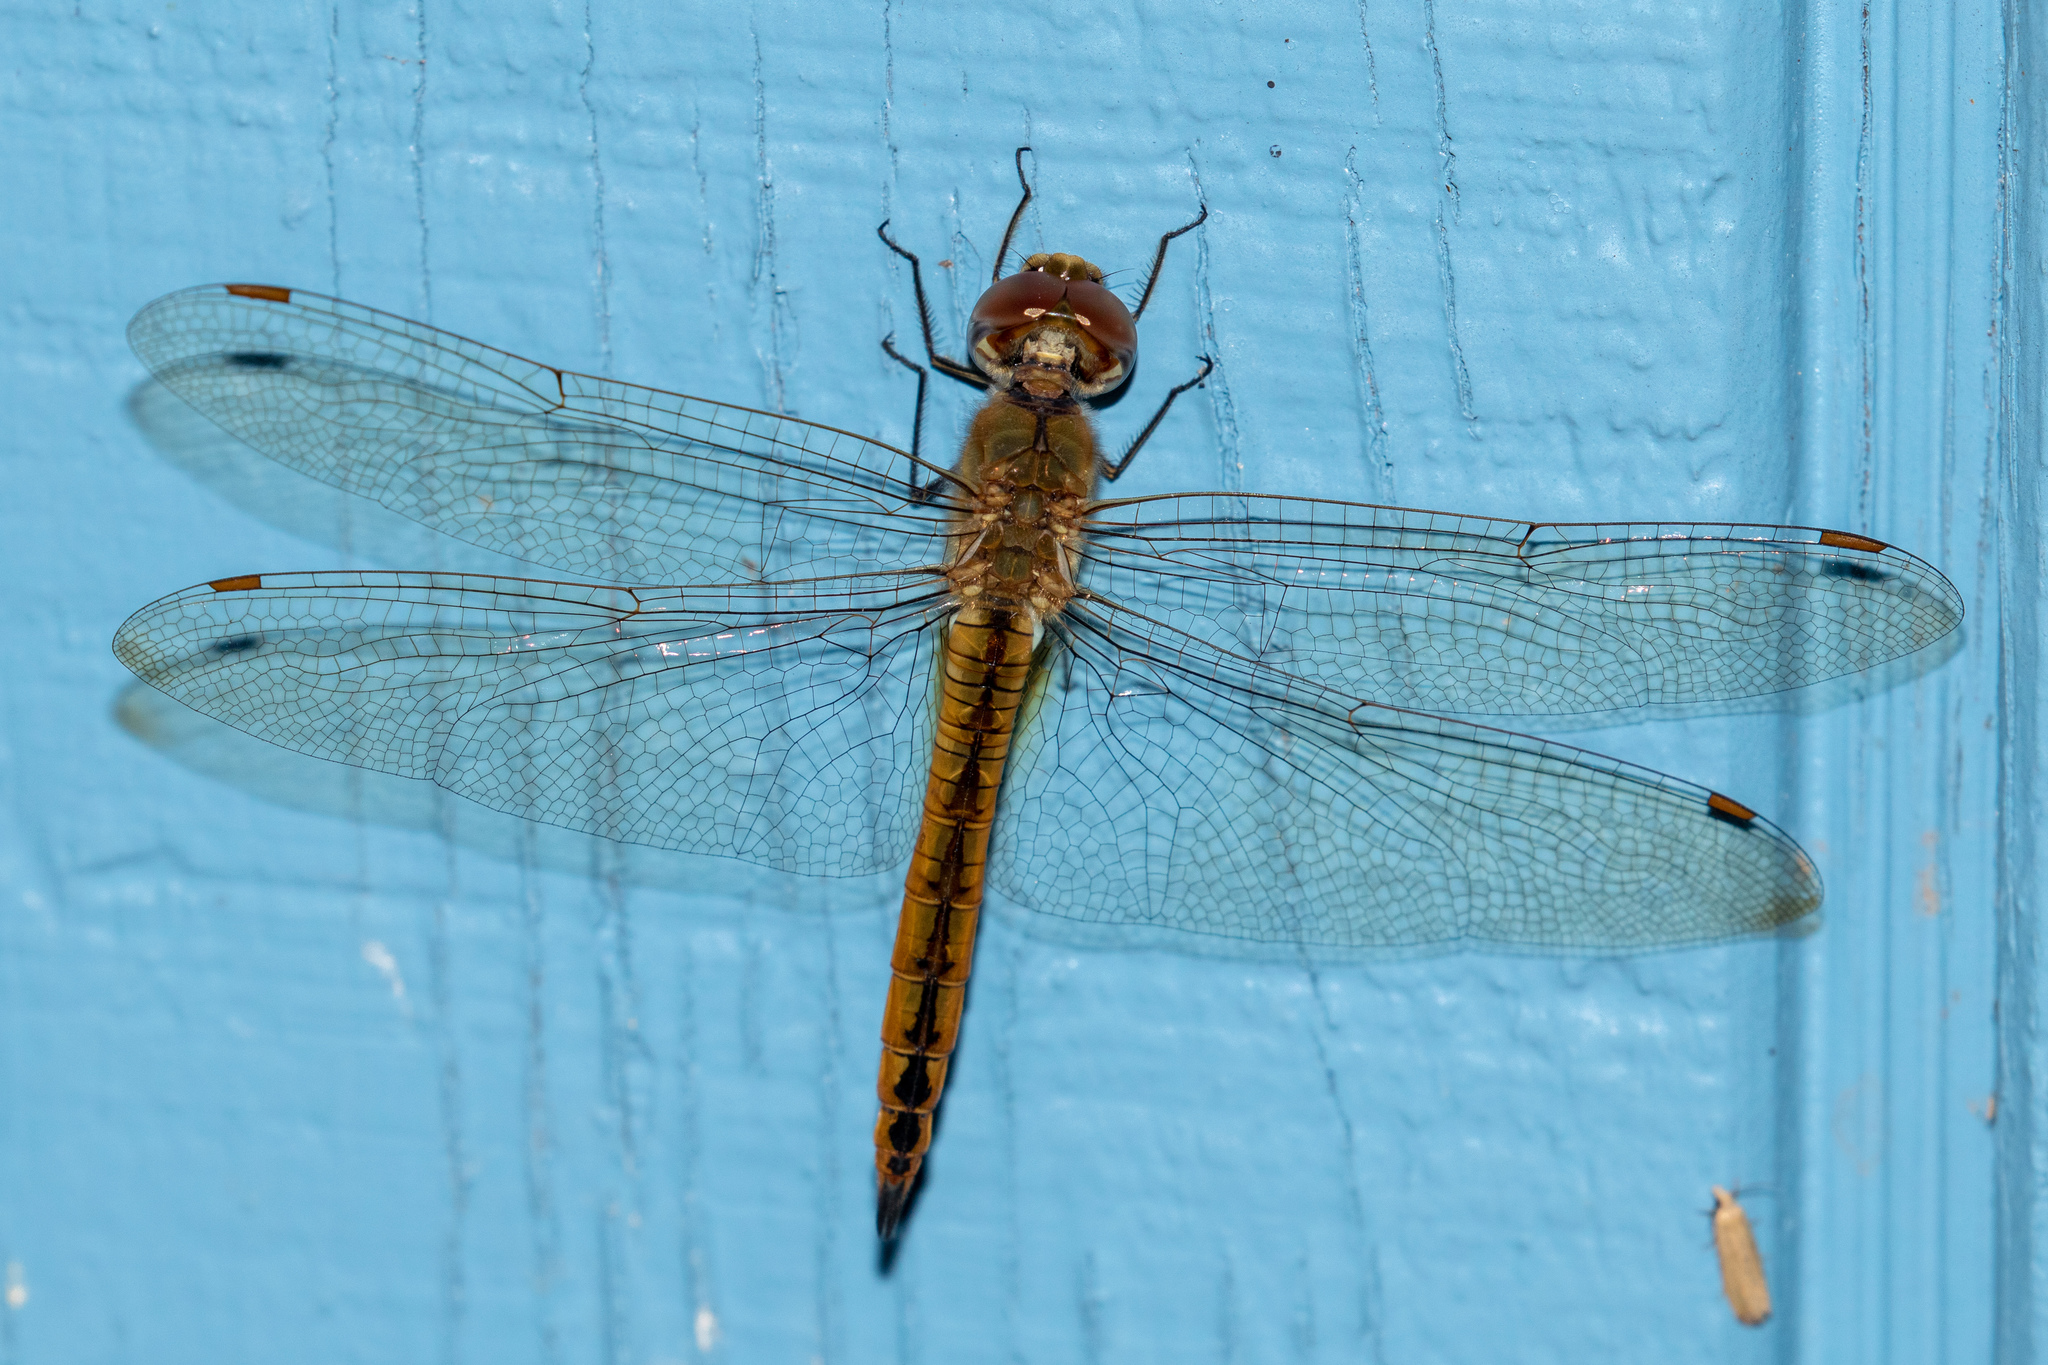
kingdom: Animalia
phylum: Arthropoda
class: Insecta
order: Odonata
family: Libellulidae
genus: Pantala
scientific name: Pantala flavescens
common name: Wandering glider
